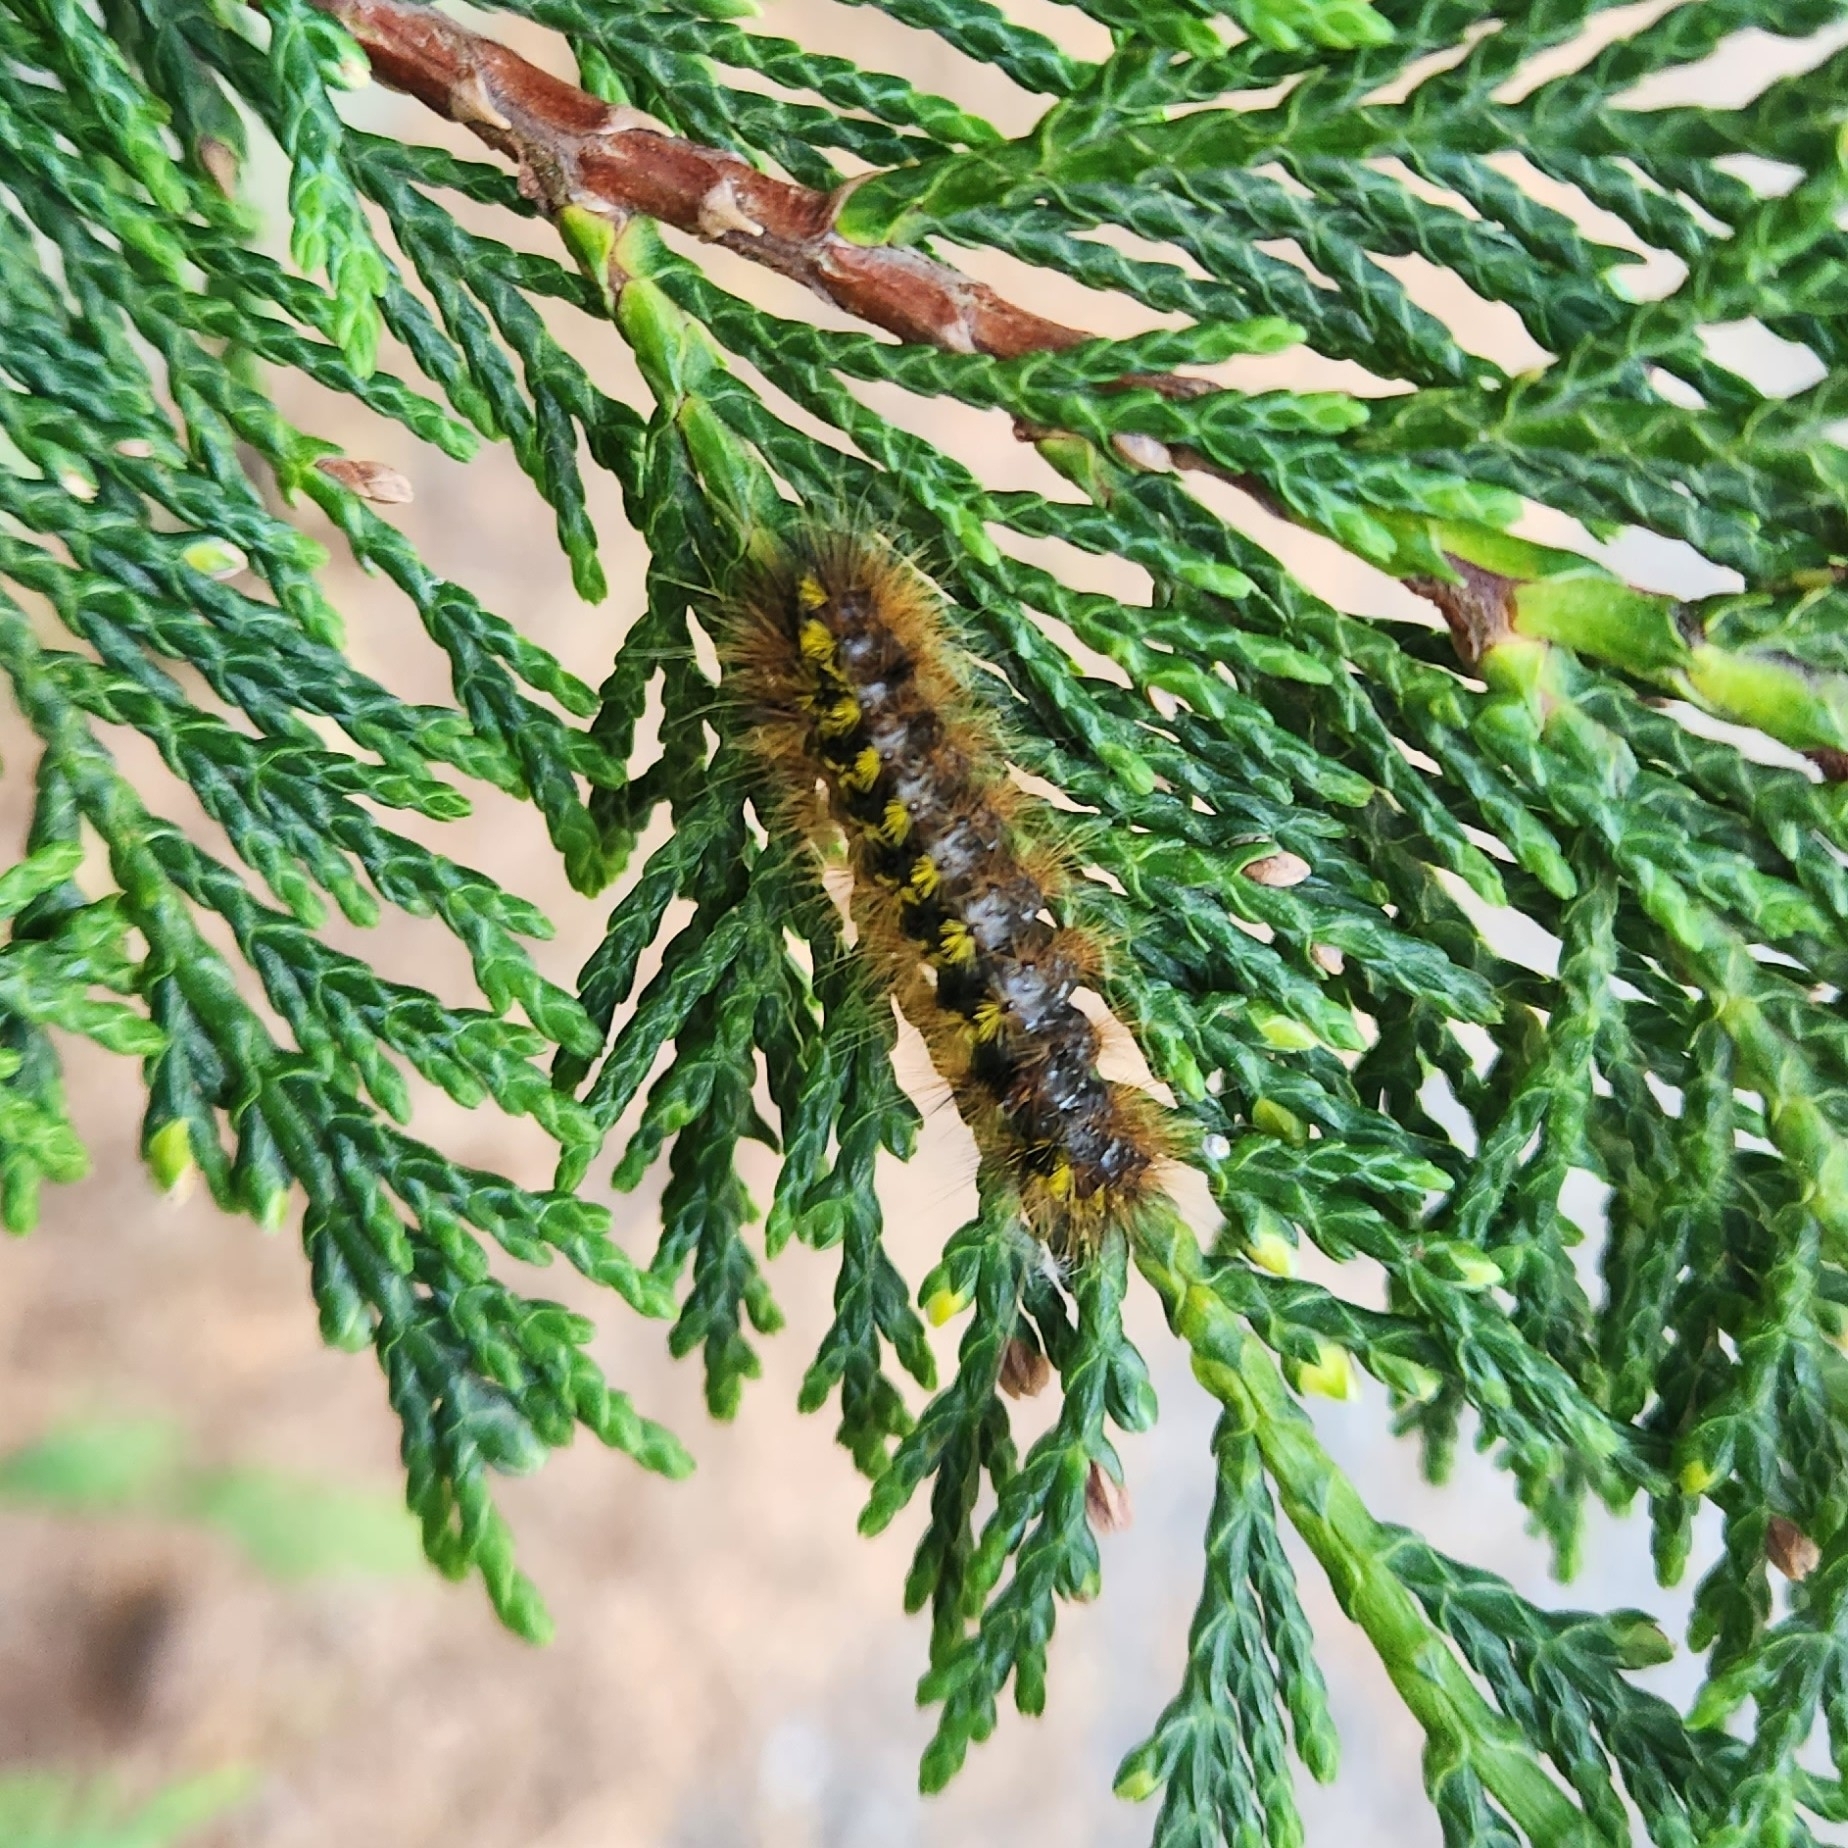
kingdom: Animalia
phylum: Arthropoda
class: Insecta
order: Lepidoptera
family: Erebidae
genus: Lophocampa
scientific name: Lophocampa argentata
